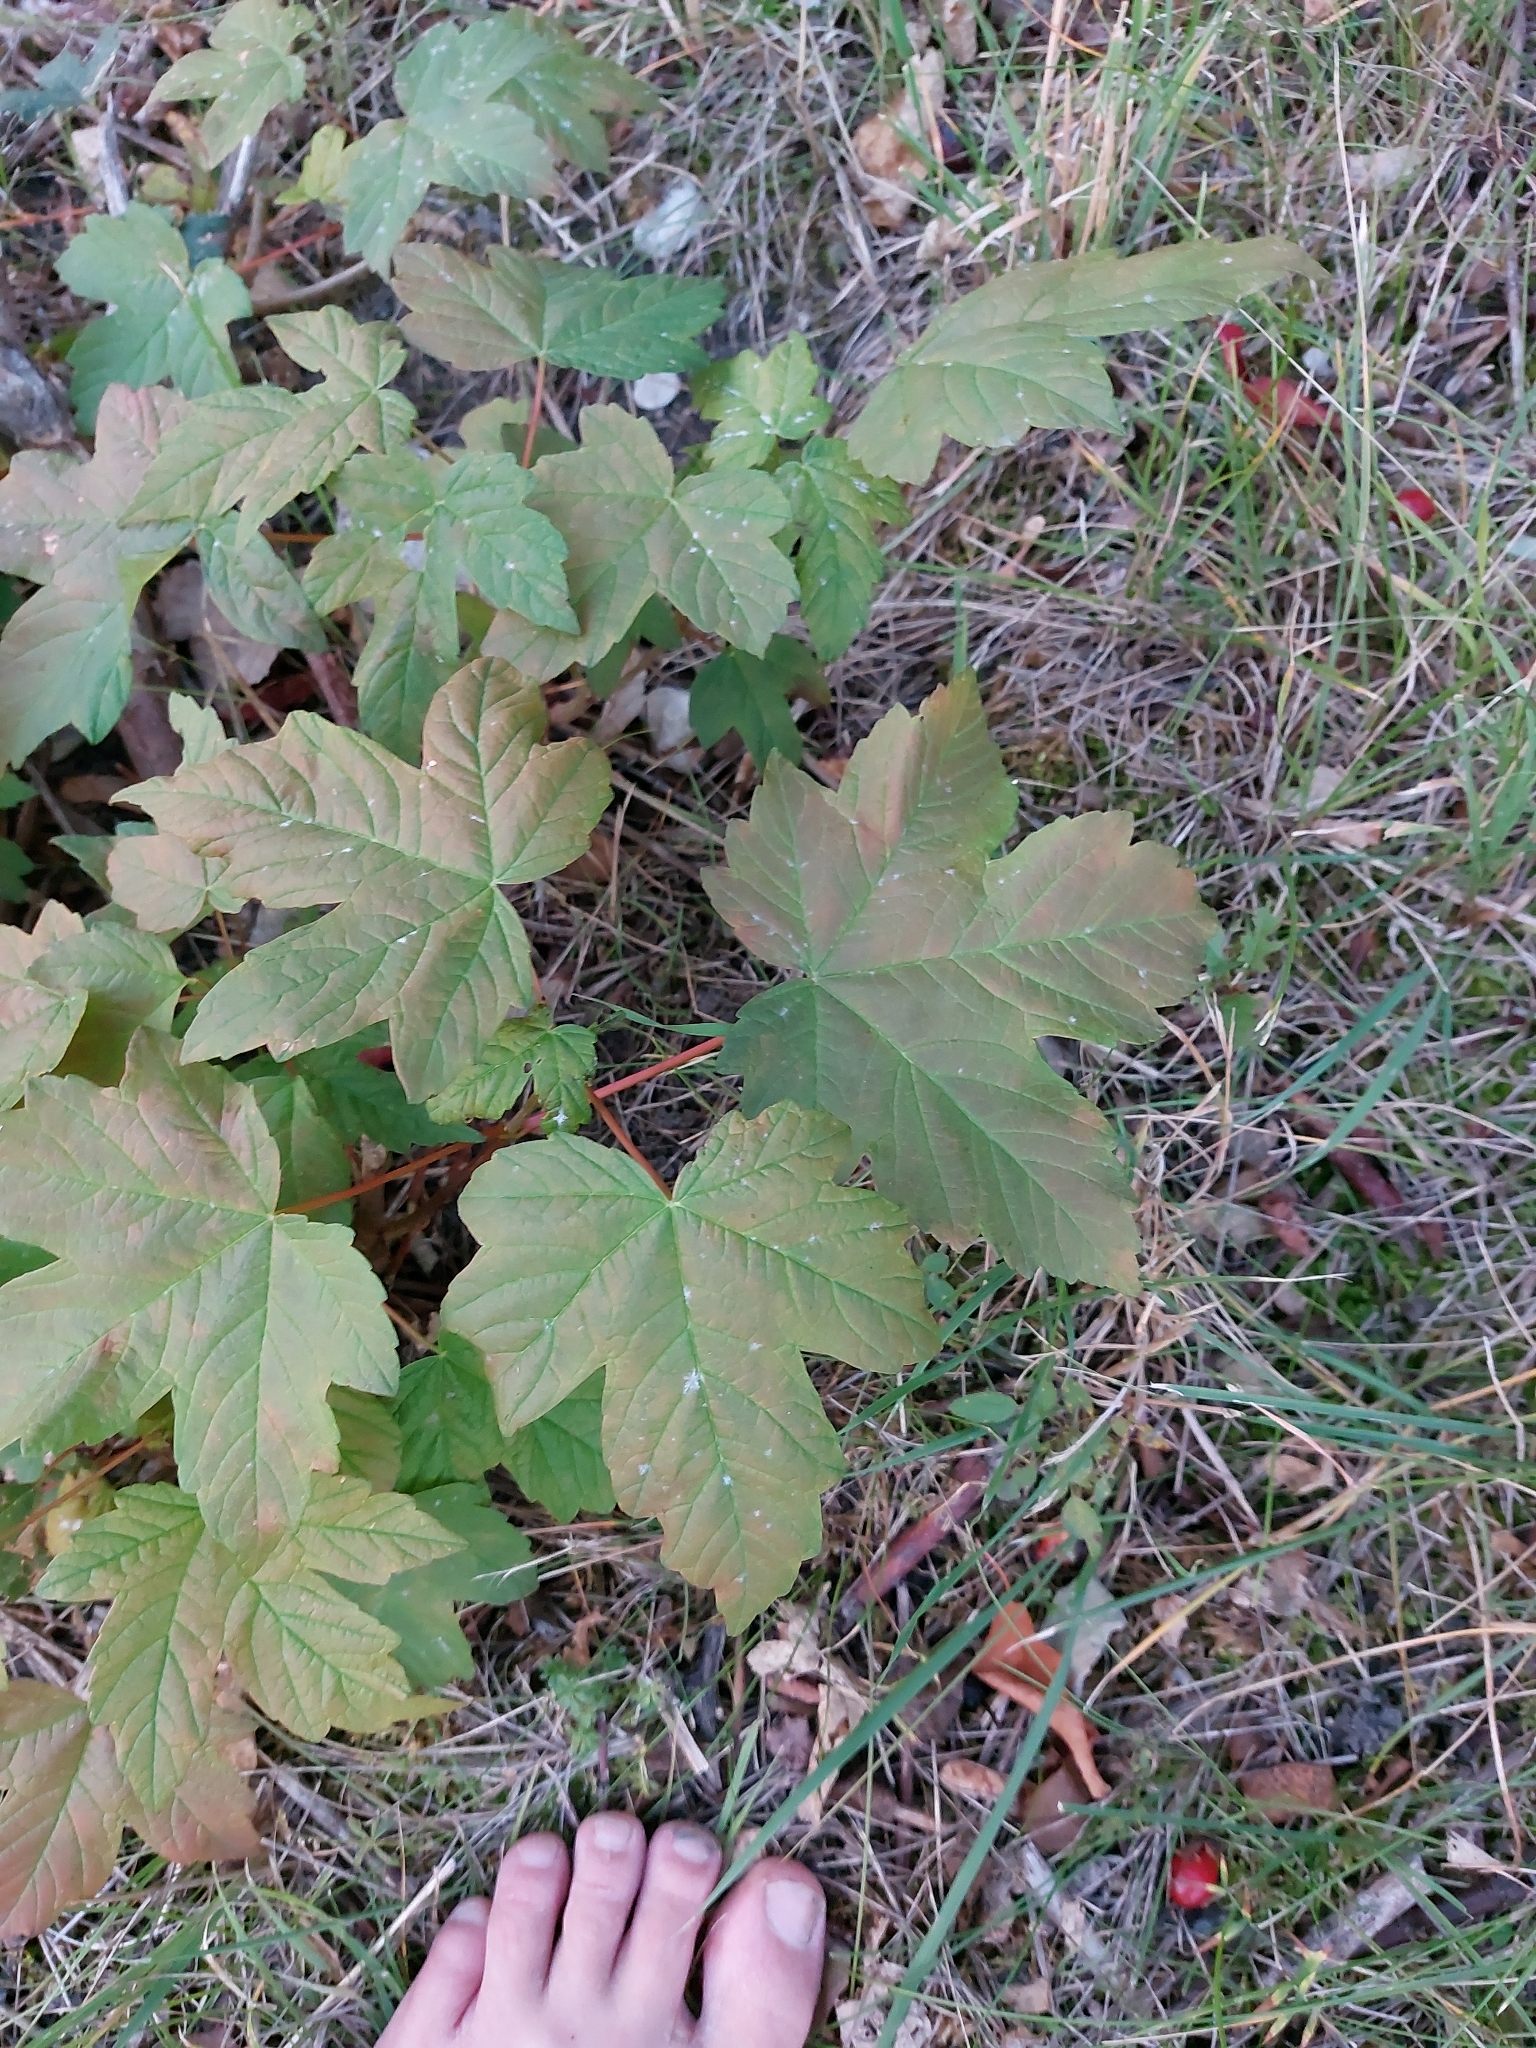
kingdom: Plantae
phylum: Tracheophyta
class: Magnoliopsida
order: Sapindales
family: Sapindaceae
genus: Acer
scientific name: Acer pseudoplatanus
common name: Sycamore
